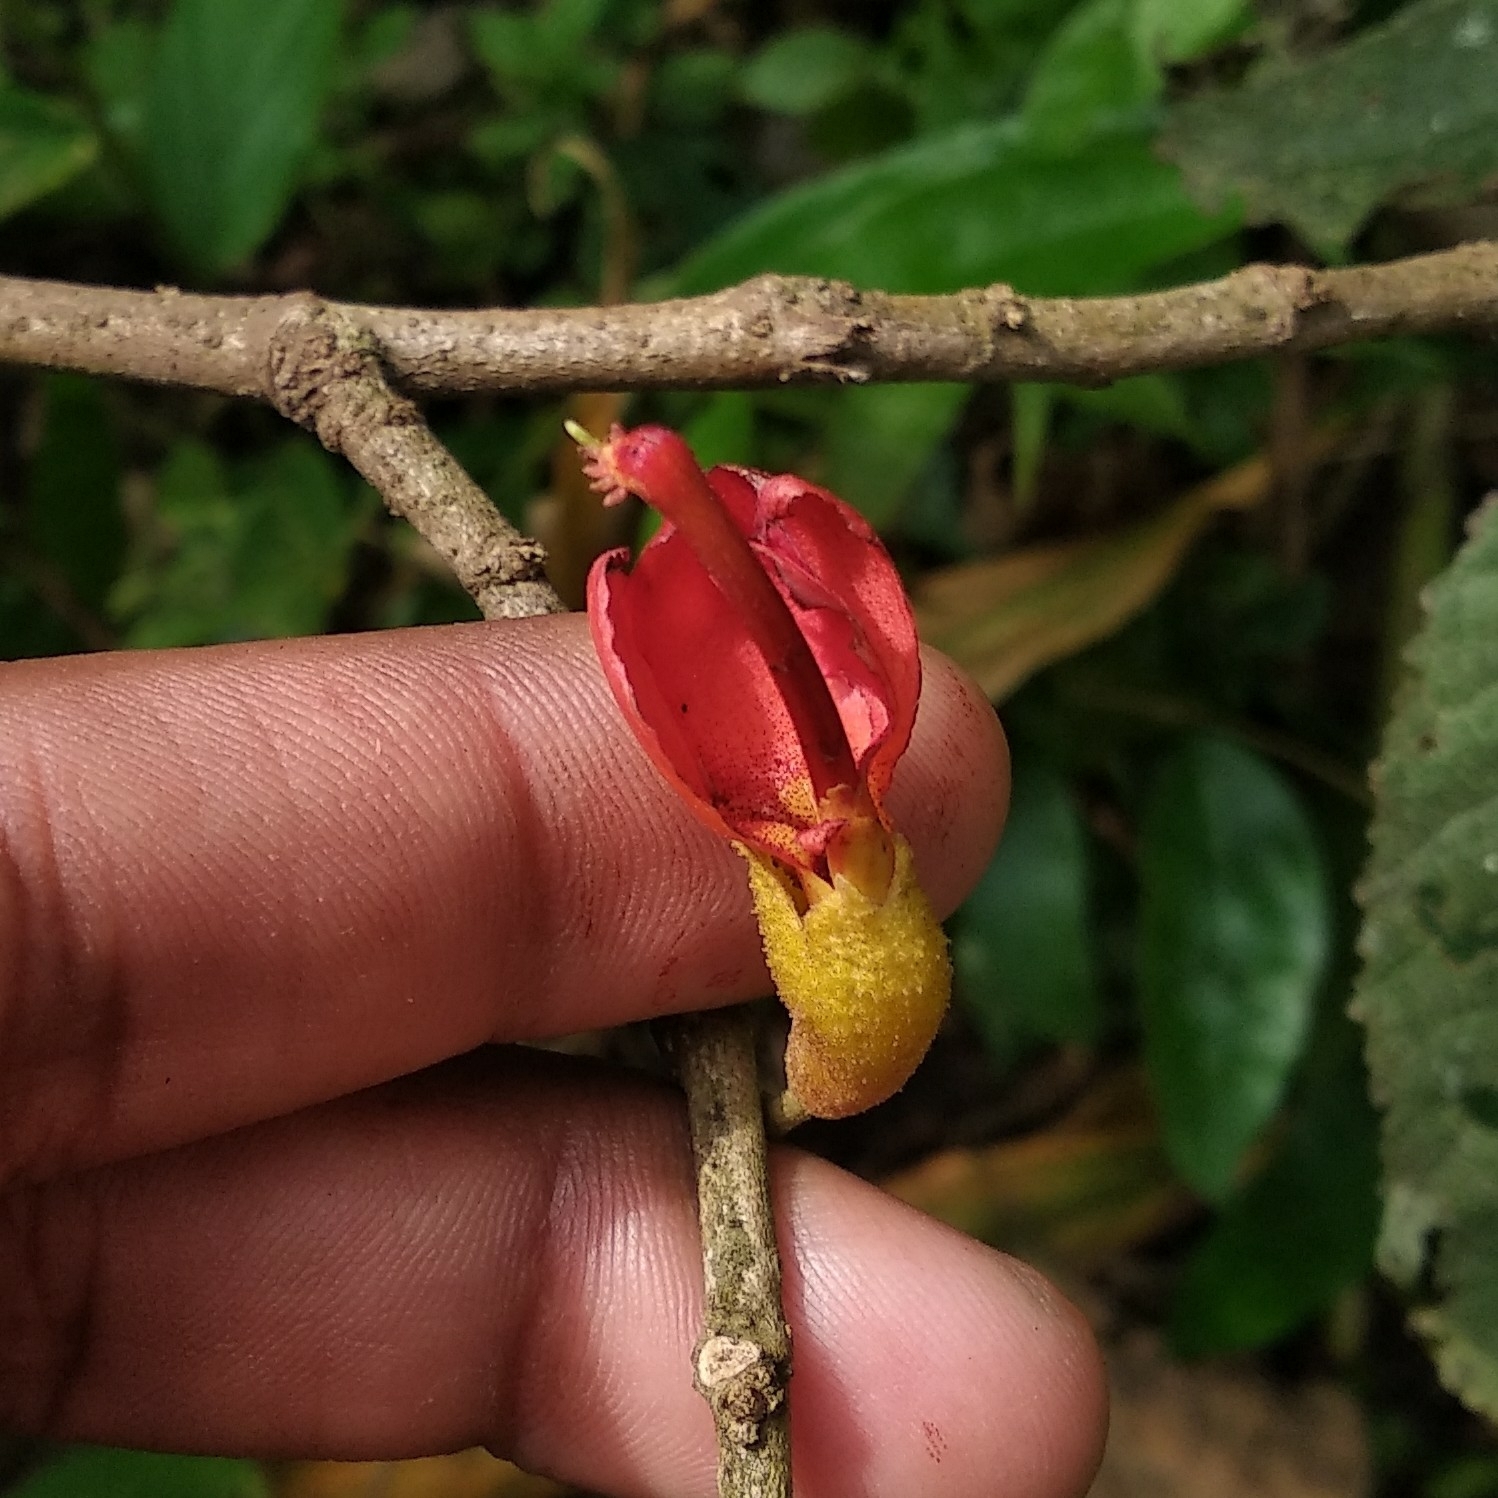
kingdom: Plantae
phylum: Tracheophyta
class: Magnoliopsida
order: Malvales
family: Malvaceae
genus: Helicteres
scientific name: Helicteres isora
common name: East indian screwtree
